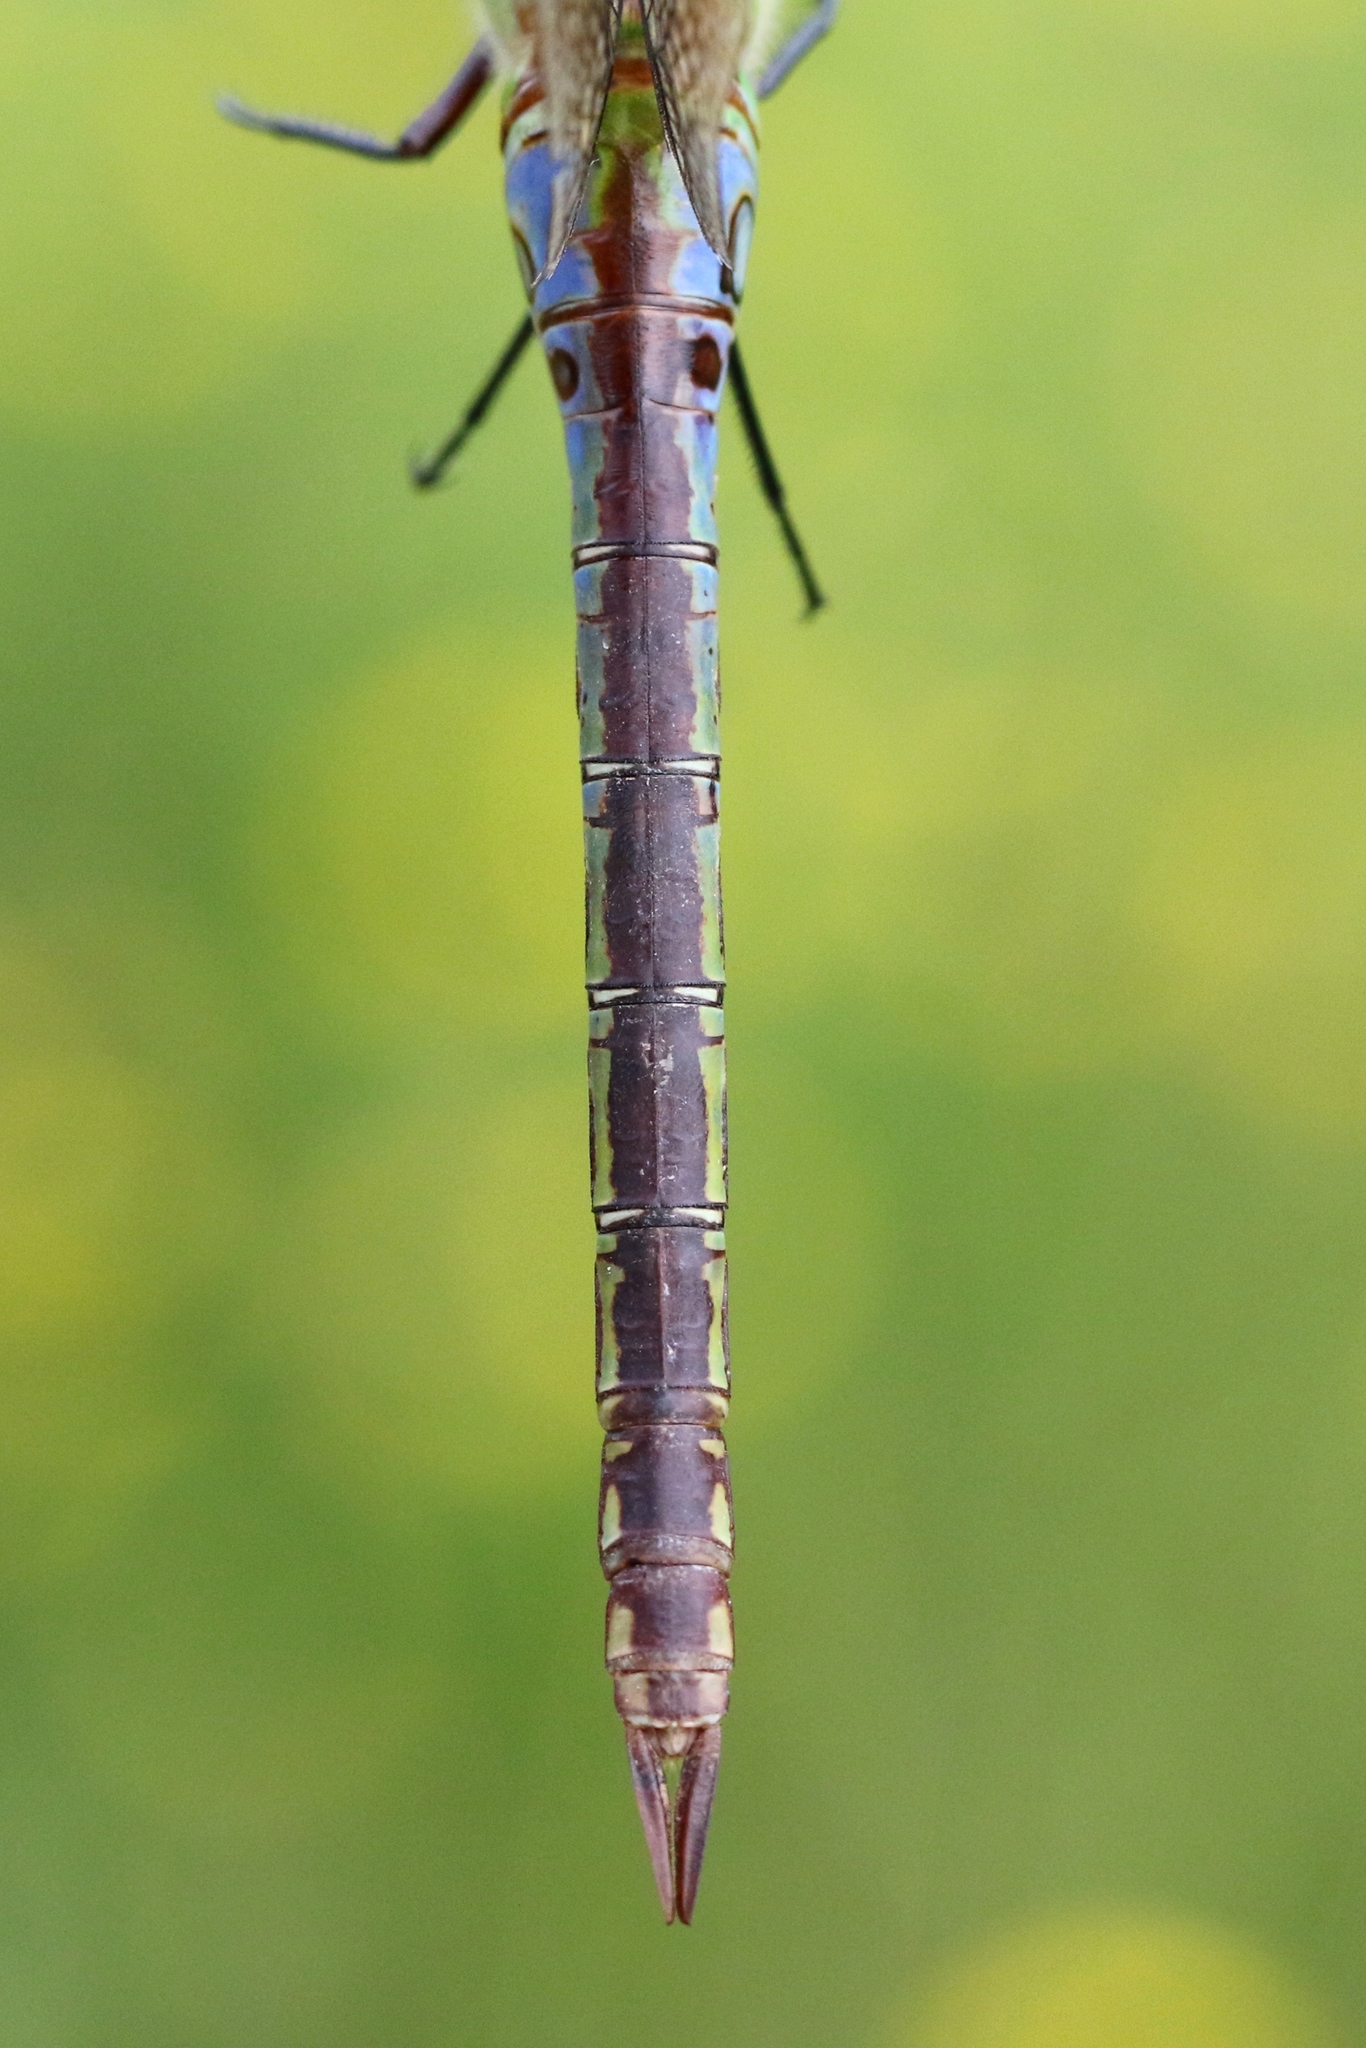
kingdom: Animalia
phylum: Arthropoda
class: Insecta
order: Odonata
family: Aeshnidae
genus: Anax
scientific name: Anax junius
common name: Common green darner
